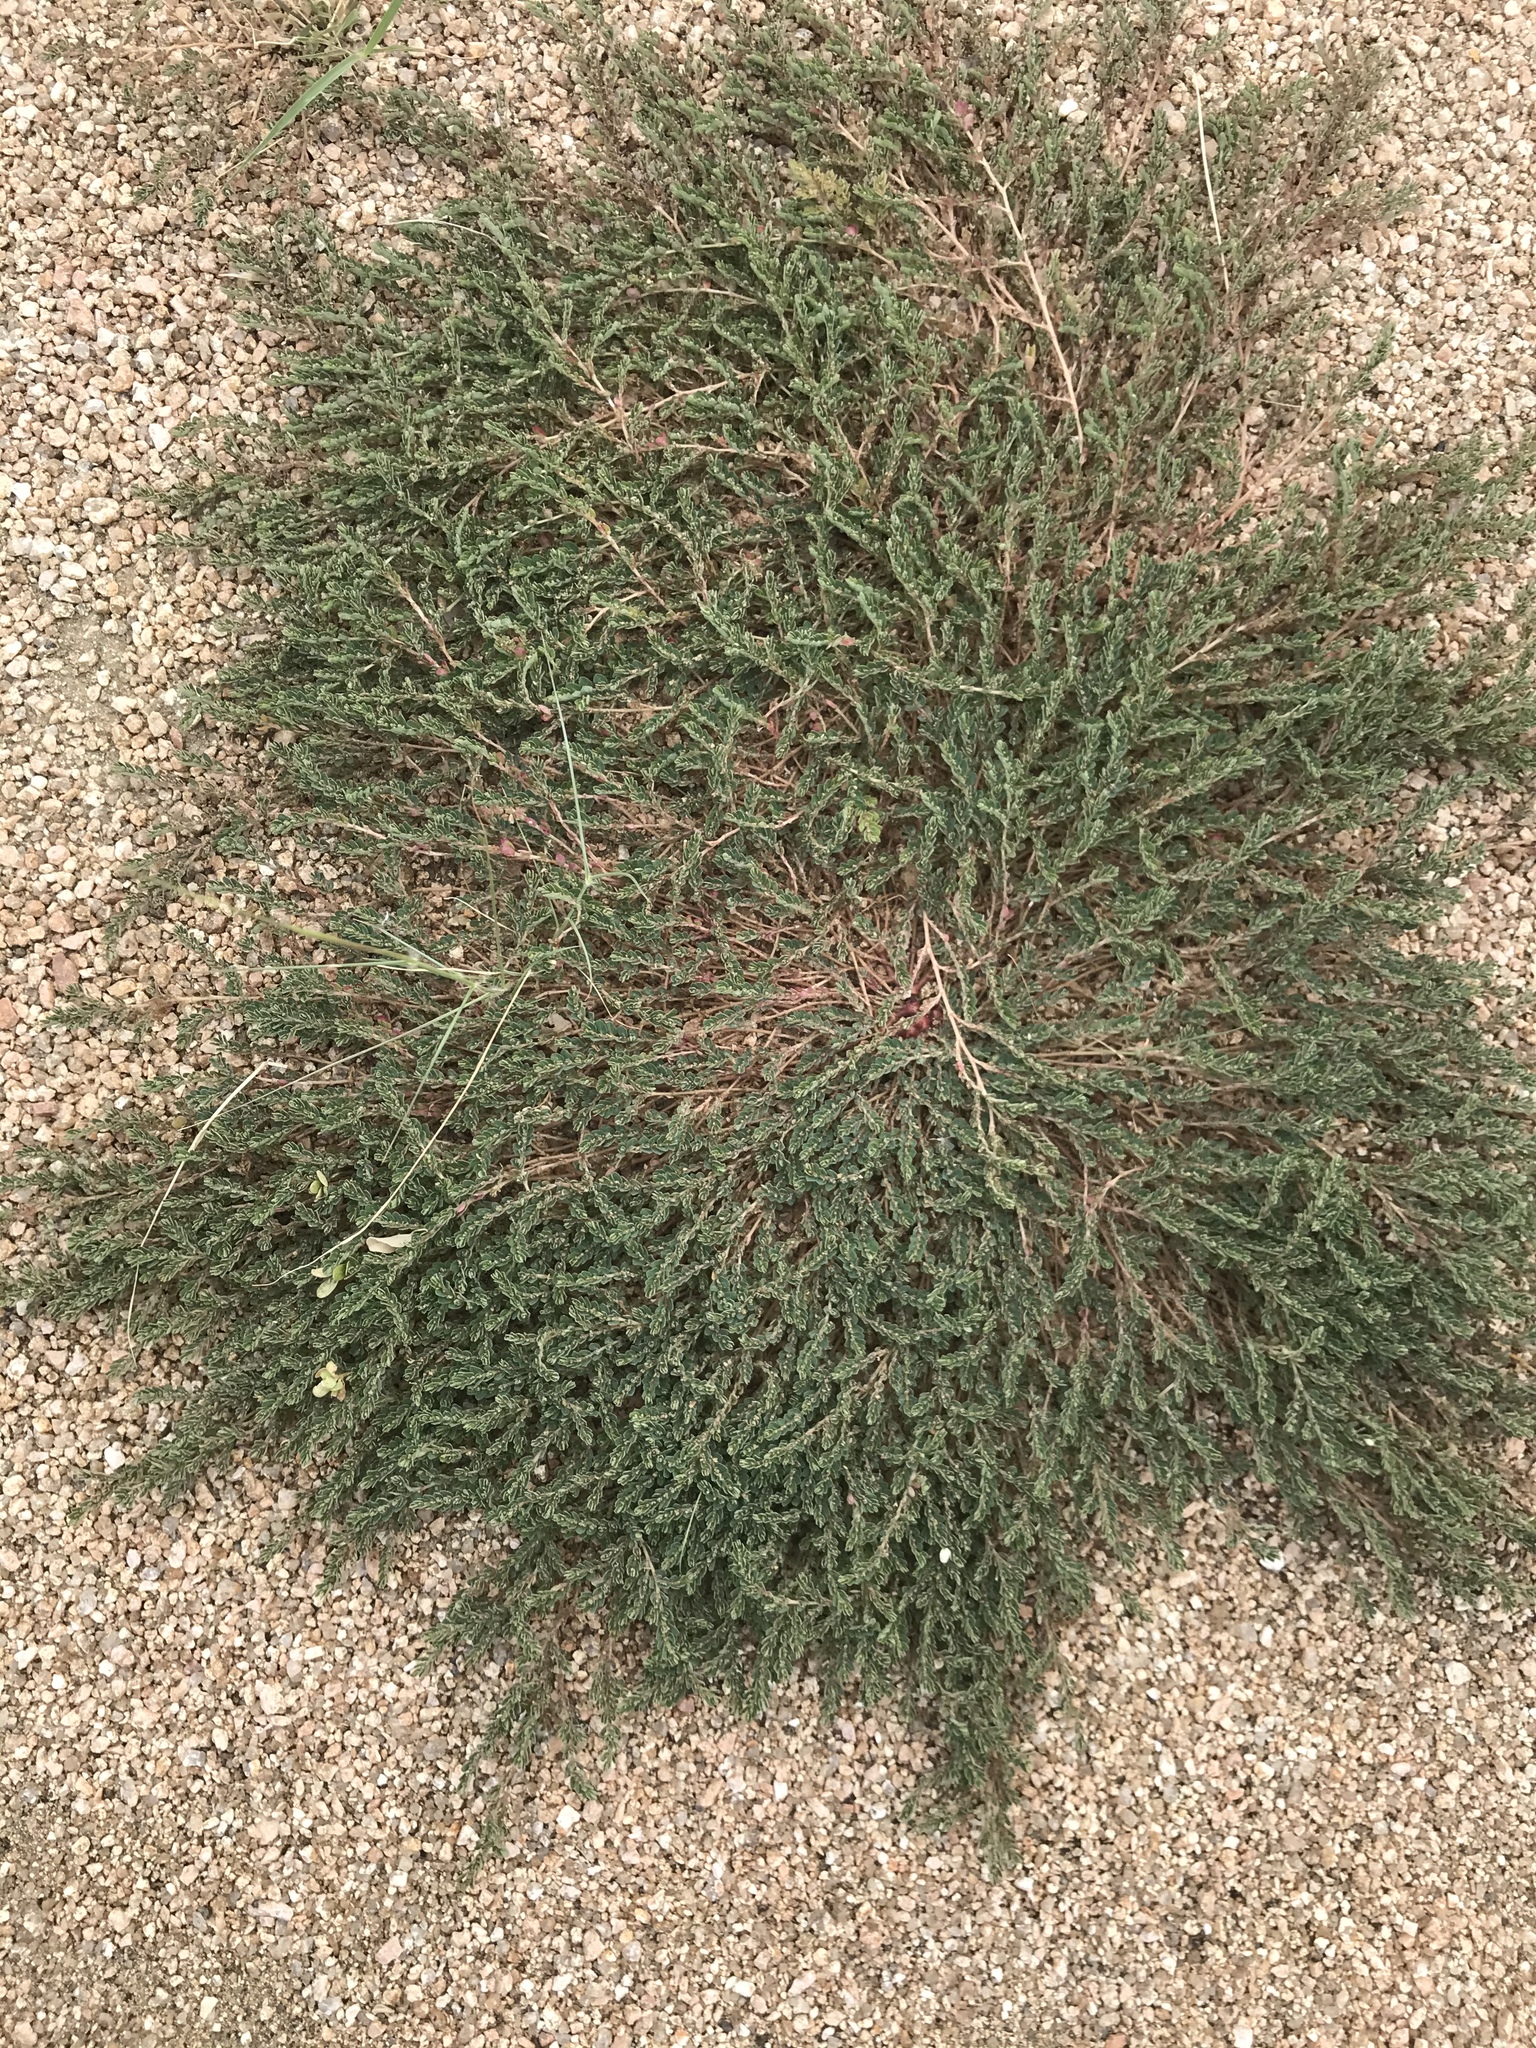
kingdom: Plantae
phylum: Tracheophyta
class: Magnoliopsida
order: Malpighiales
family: Euphorbiaceae
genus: Euphorbia
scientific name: Euphorbia prostrata
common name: Prostrate sandmat
